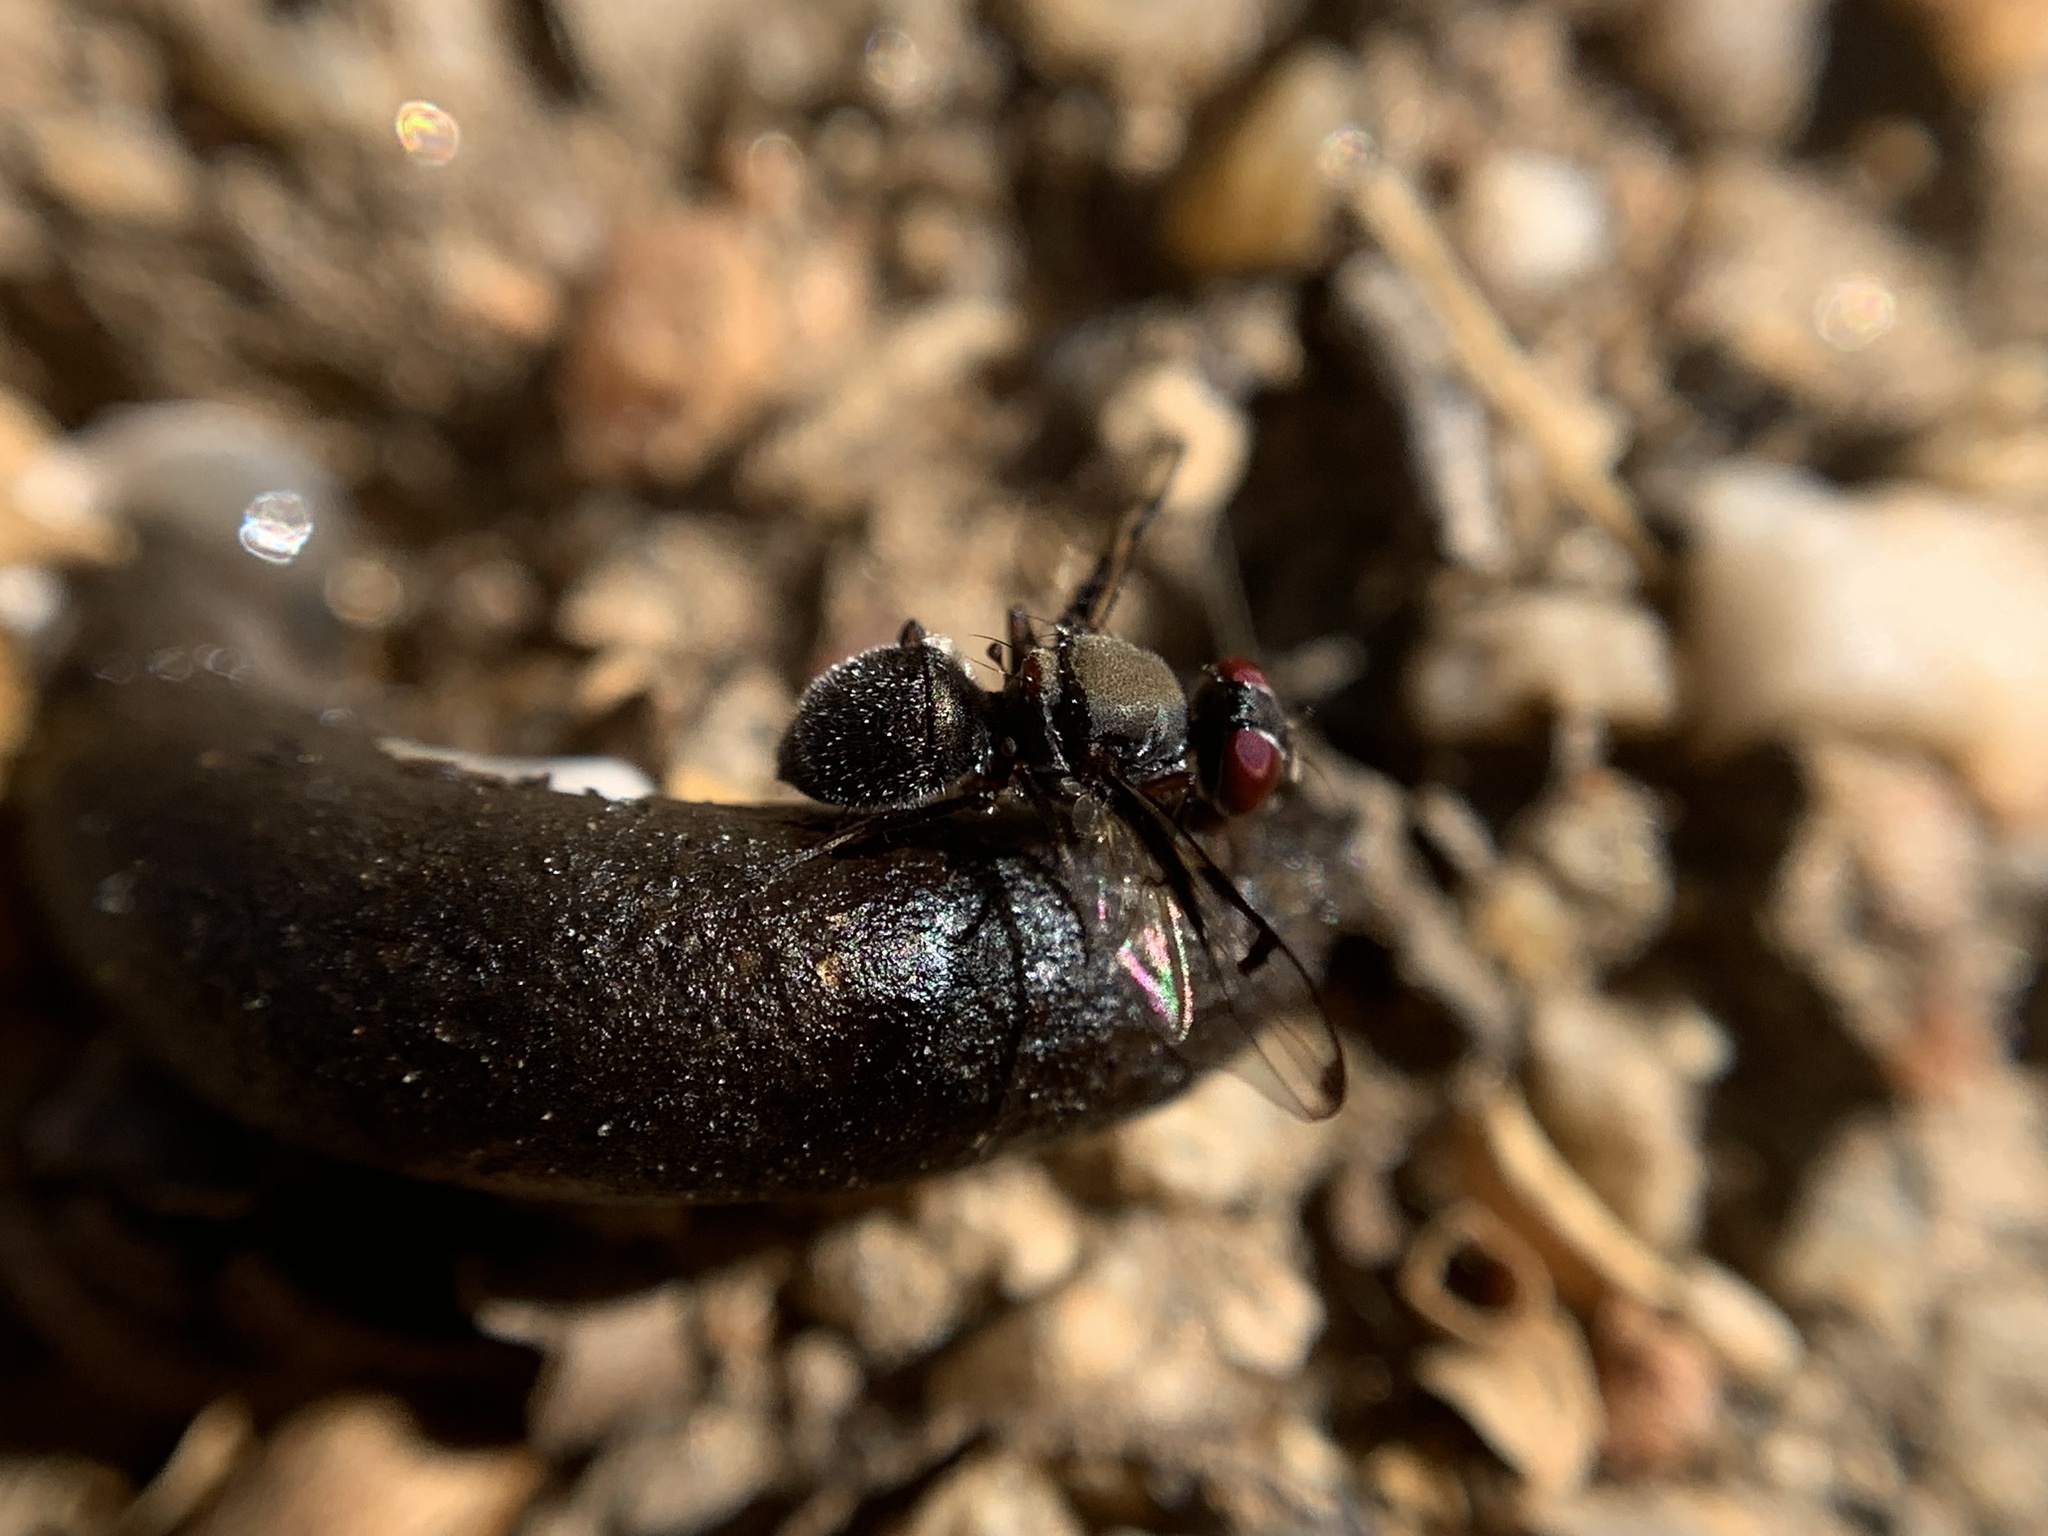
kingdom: Animalia
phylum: Arthropoda
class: Insecta
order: Diptera
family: Platystomatidae
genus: Pogonortalis
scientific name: Pogonortalis doclea
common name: Boatman fly
